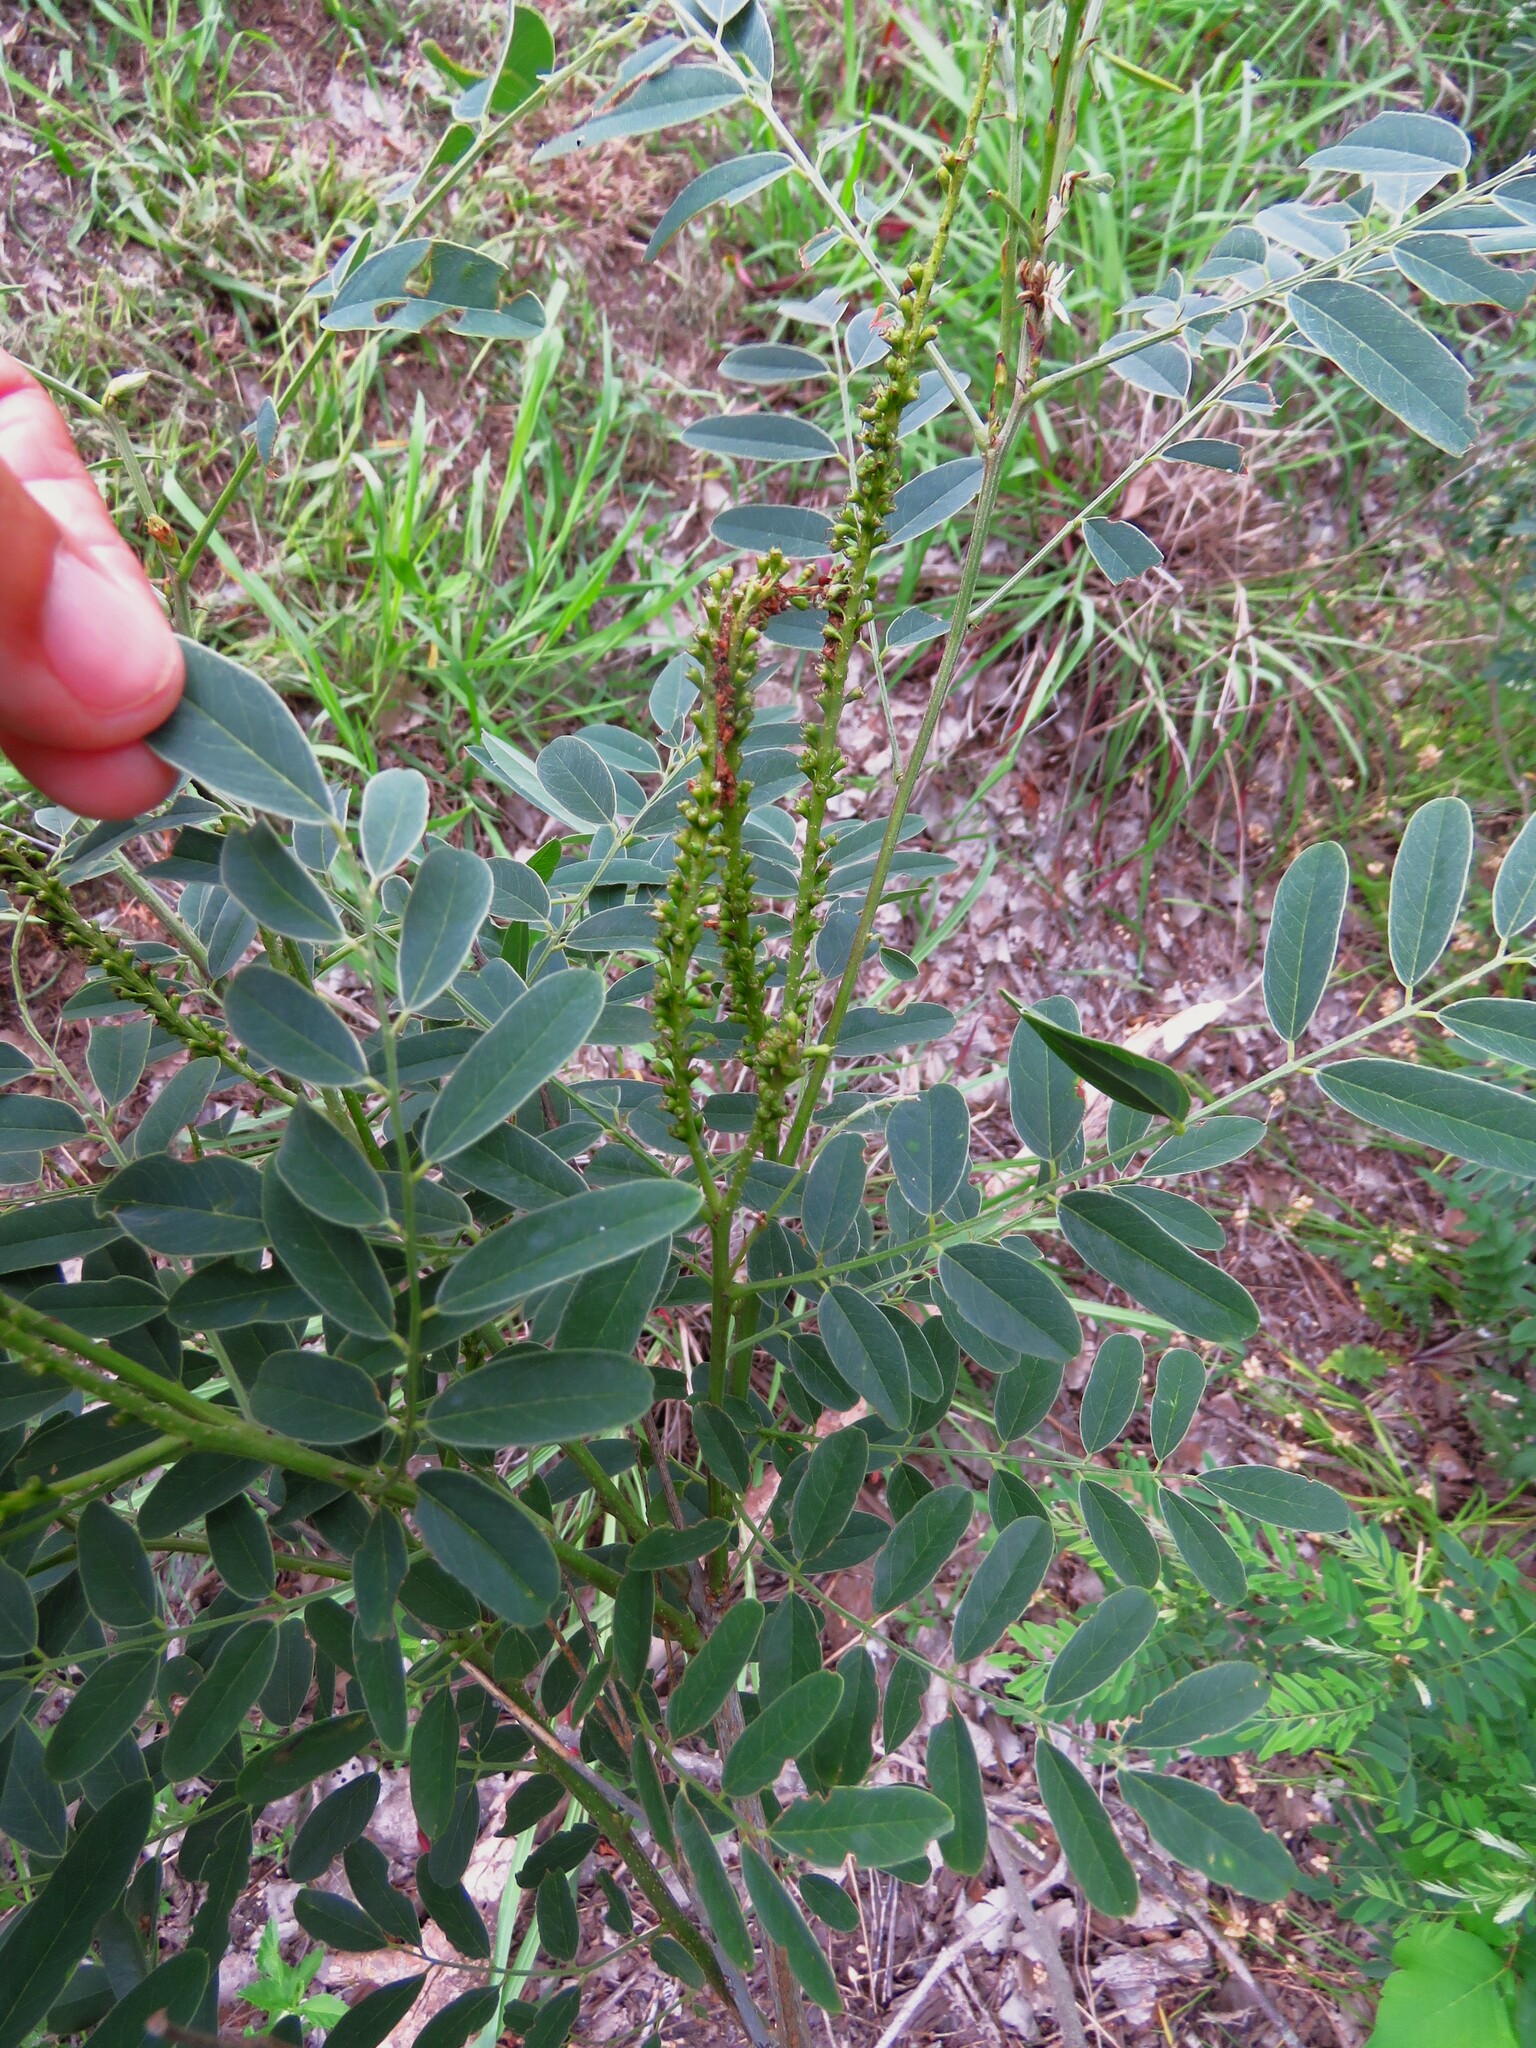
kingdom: Plantae
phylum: Tracheophyta
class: Magnoliopsida
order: Fabales
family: Fabaceae
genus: Amorpha
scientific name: Amorpha fruticosa
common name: False indigo
